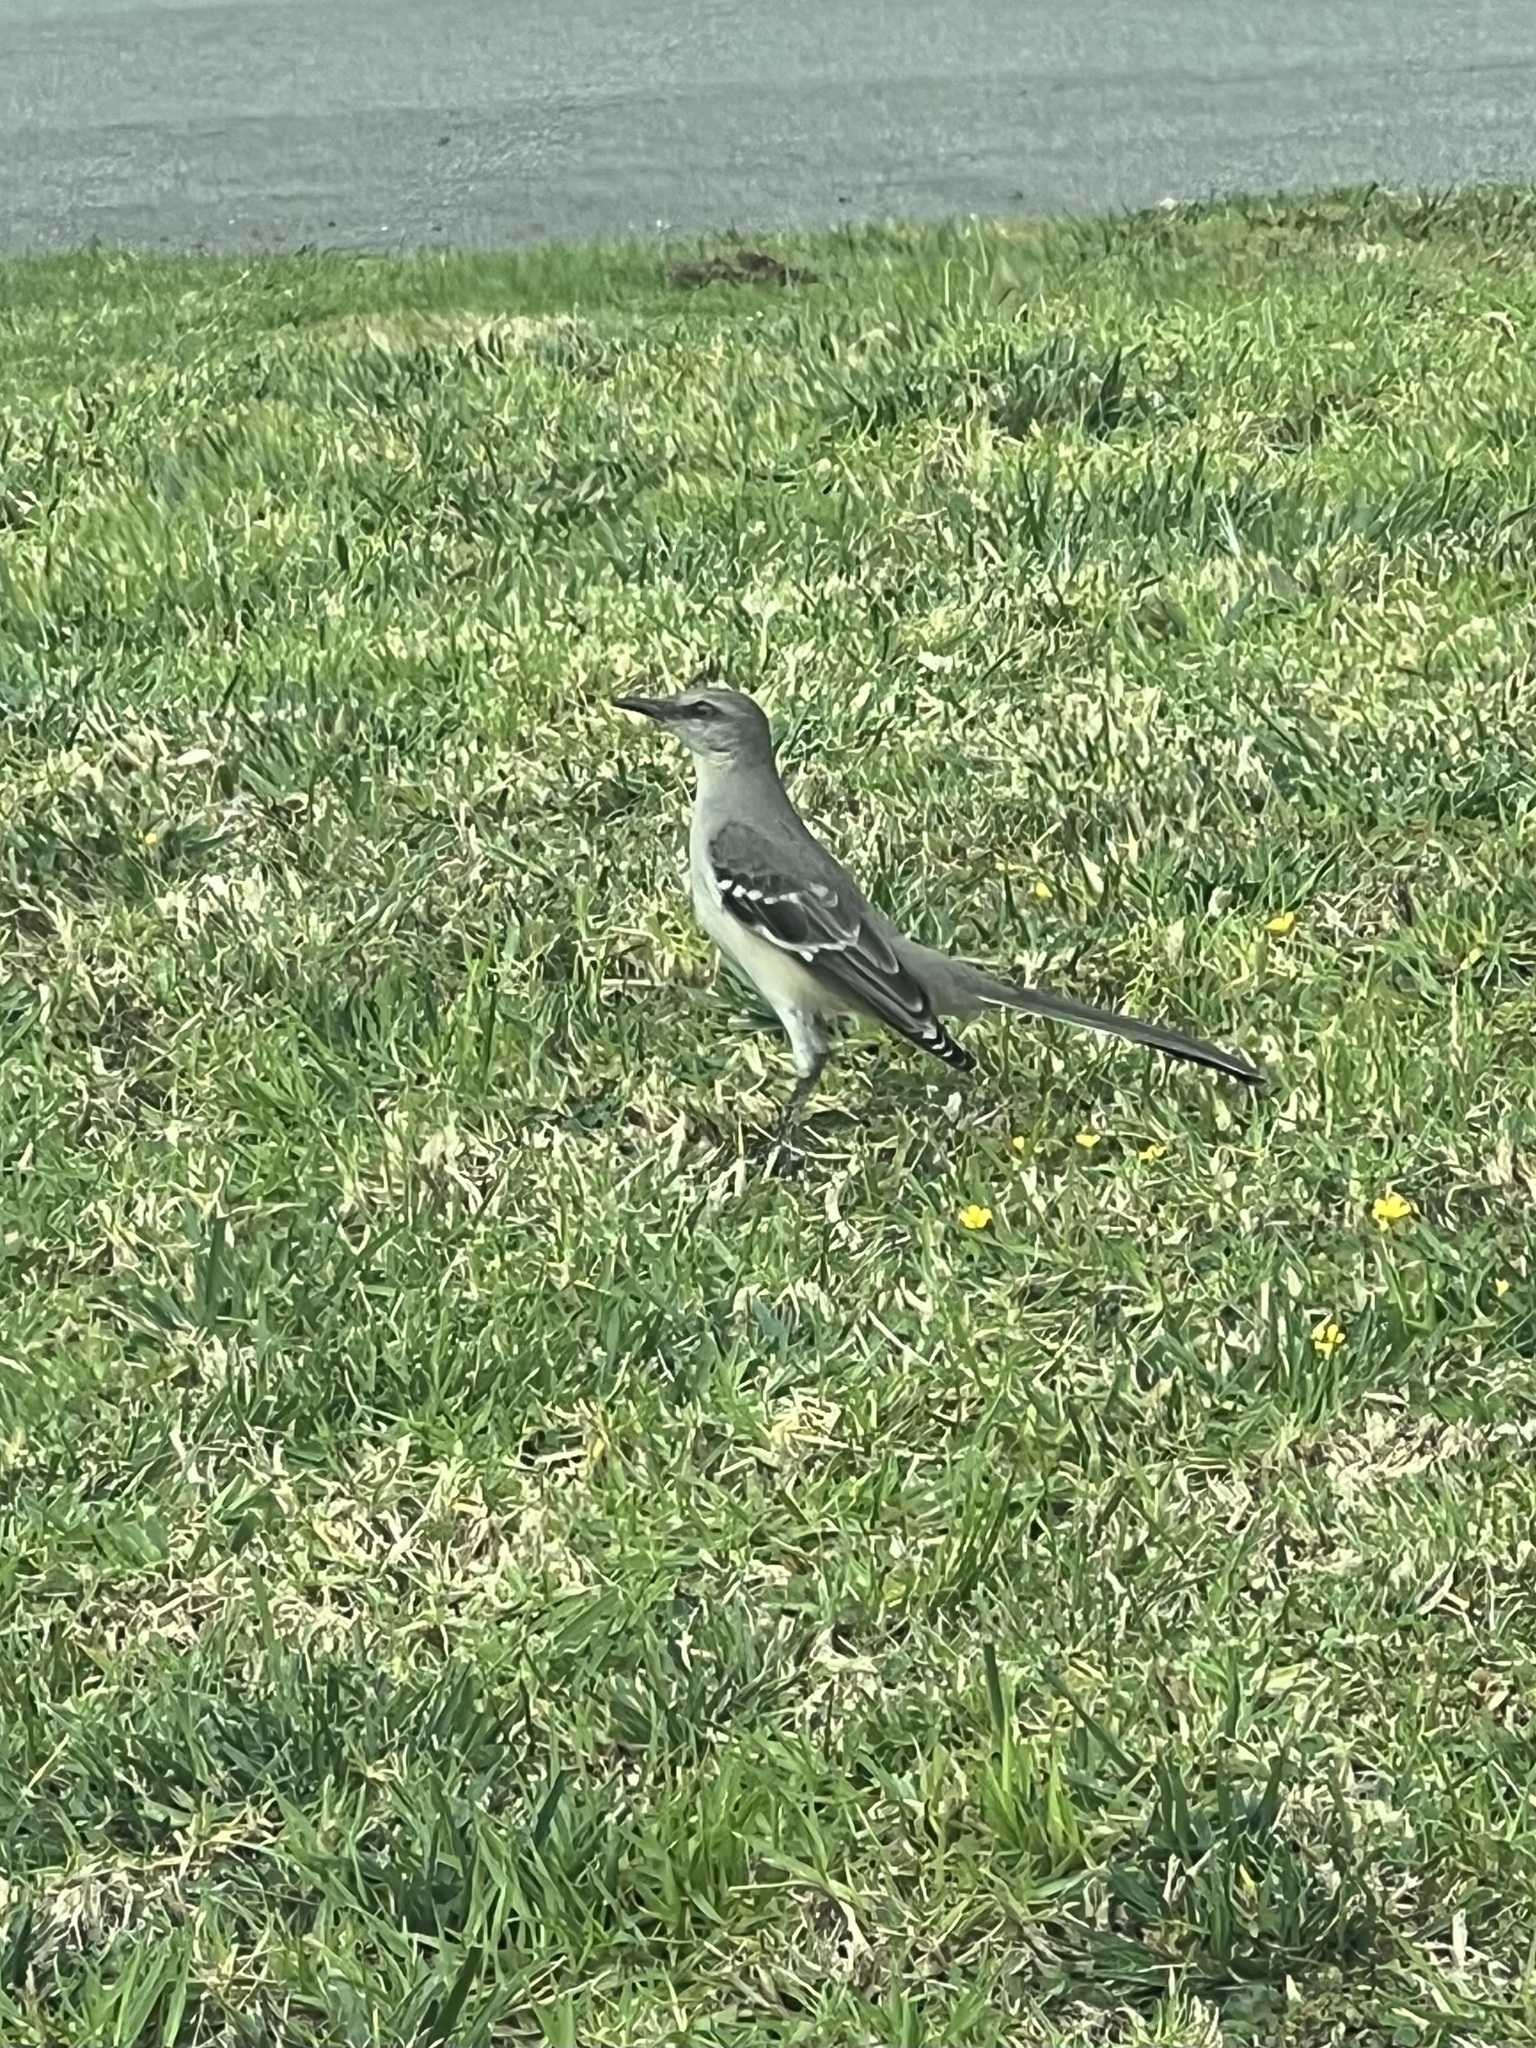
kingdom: Animalia
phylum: Chordata
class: Aves
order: Passeriformes
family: Mimidae
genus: Mimus
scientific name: Mimus polyglottos
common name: Northern mockingbird
